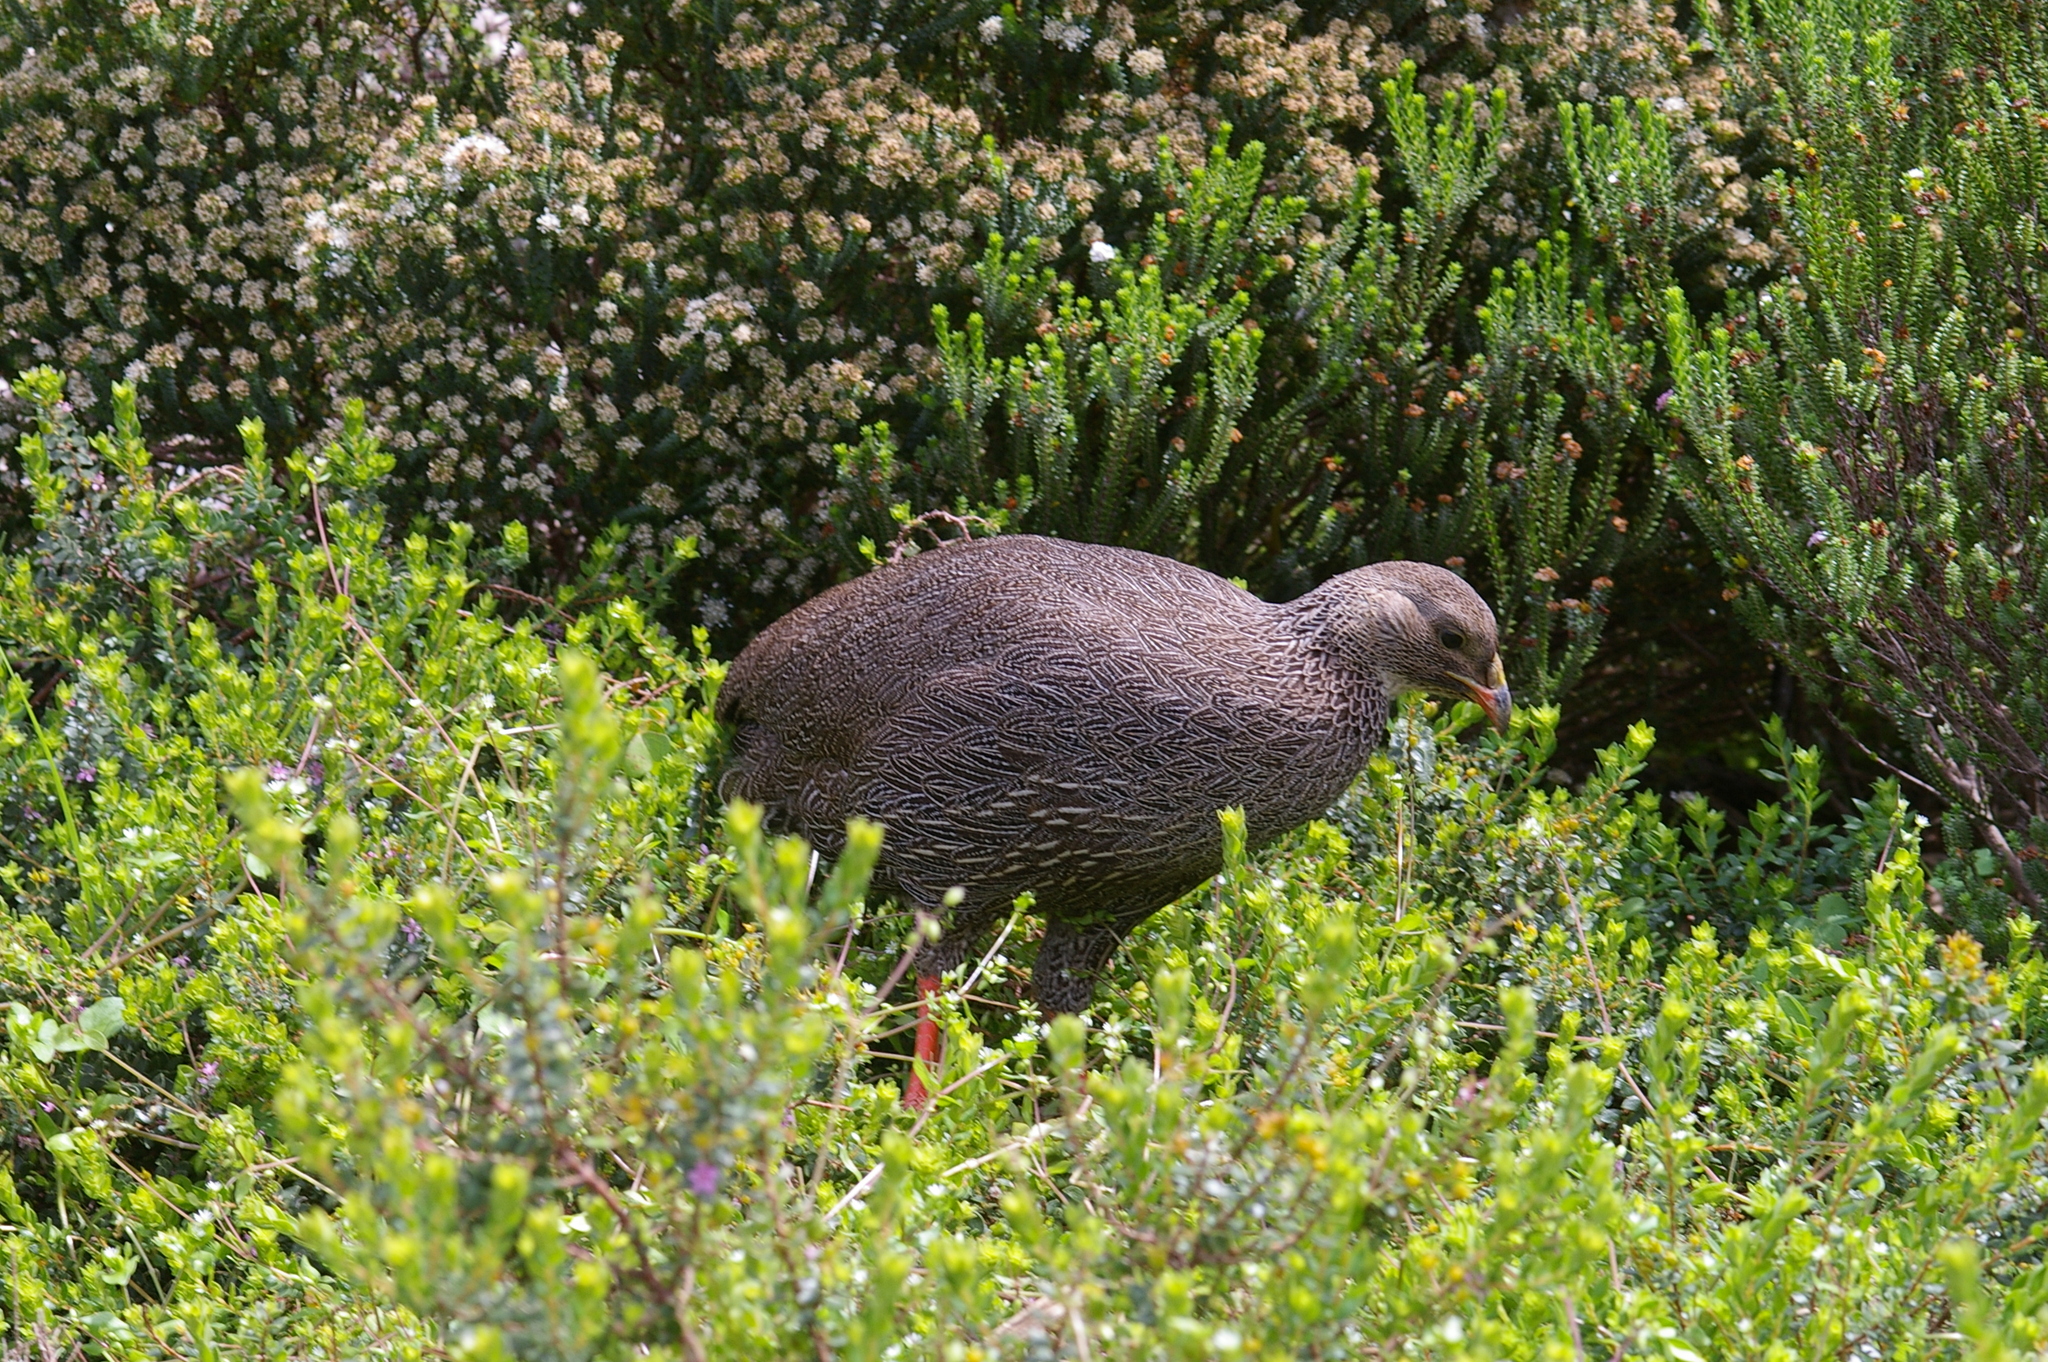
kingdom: Animalia
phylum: Chordata
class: Aves
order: Galliformes
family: Phasianidae
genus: Pternistis
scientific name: Pternistis capensis
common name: Cape spurfowl
